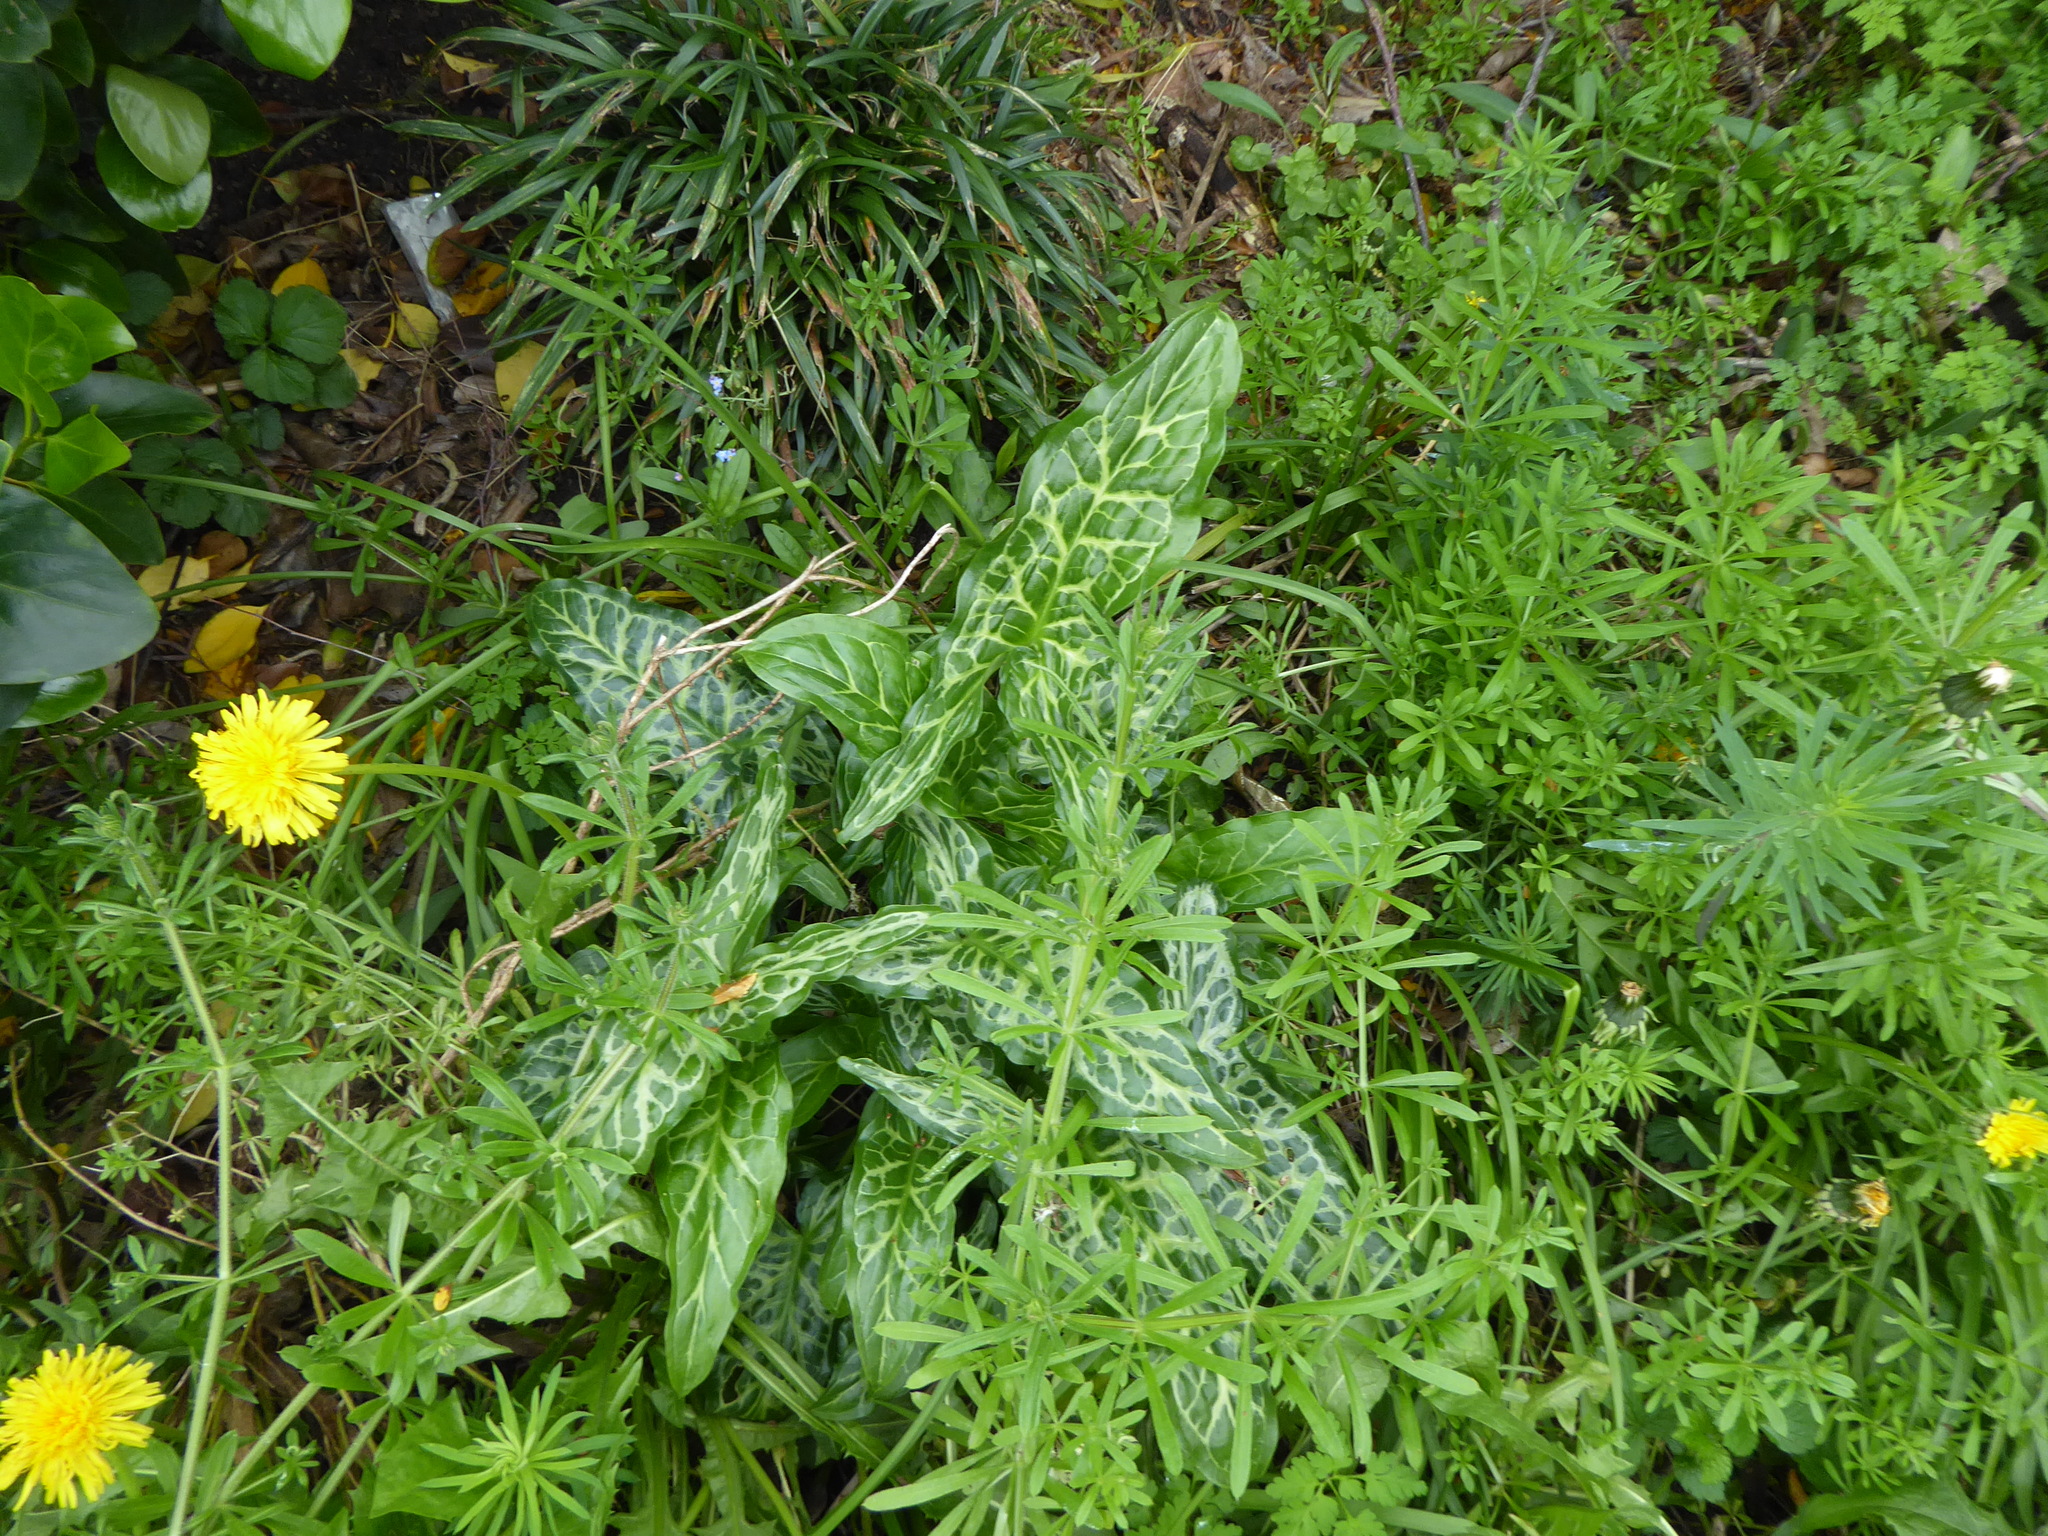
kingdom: Plantae
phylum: Tracheophyta
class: Liliopsida
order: Alismatales
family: Araceae
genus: Arum
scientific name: Arum italicum
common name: Italian lords-and-ladies
